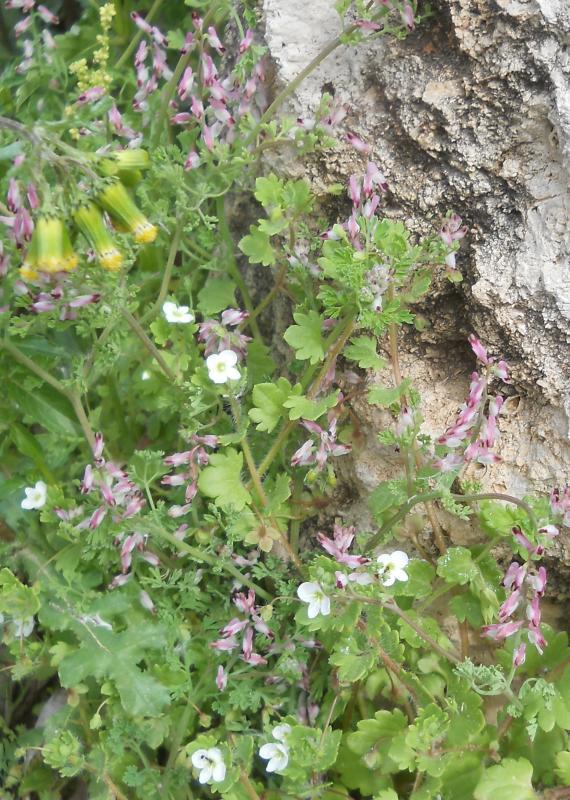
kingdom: Plantae
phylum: Tracheophyta
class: Magnoliopsida
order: Lamiales
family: Plantaginaceae
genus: Veronica
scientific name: Veronica cymbalaria
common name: Pale speedwell
